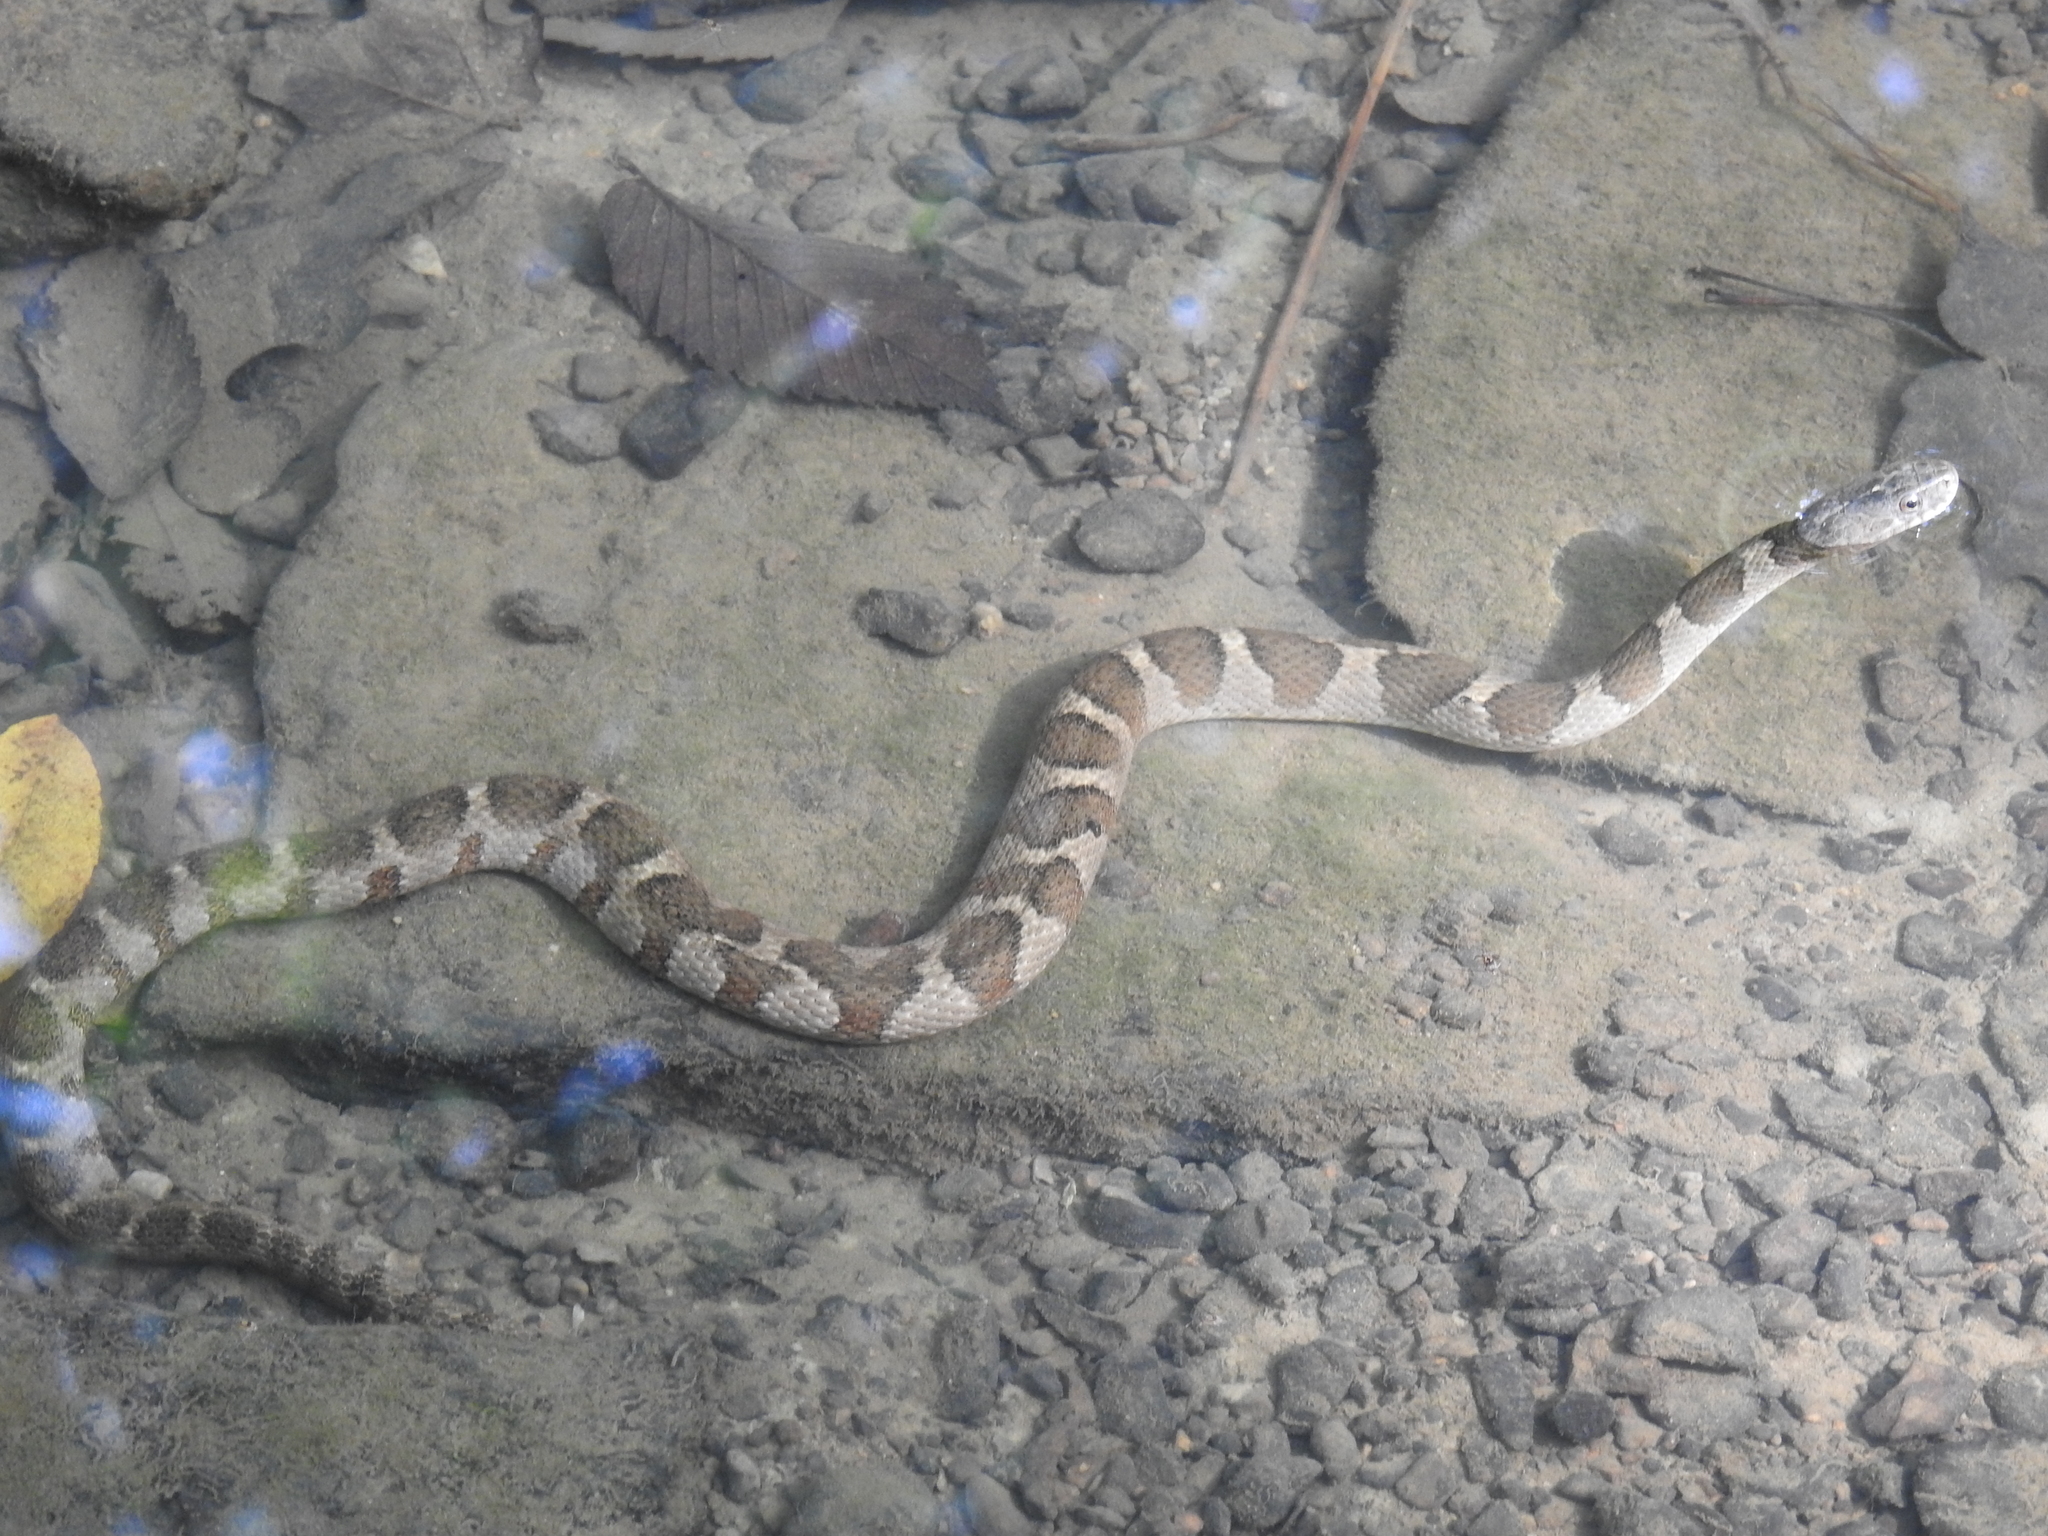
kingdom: Animalia
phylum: Chordata
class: Squamata
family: Colubridae
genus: Nerodia
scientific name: Nerodia sipedon
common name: Northern water snake
